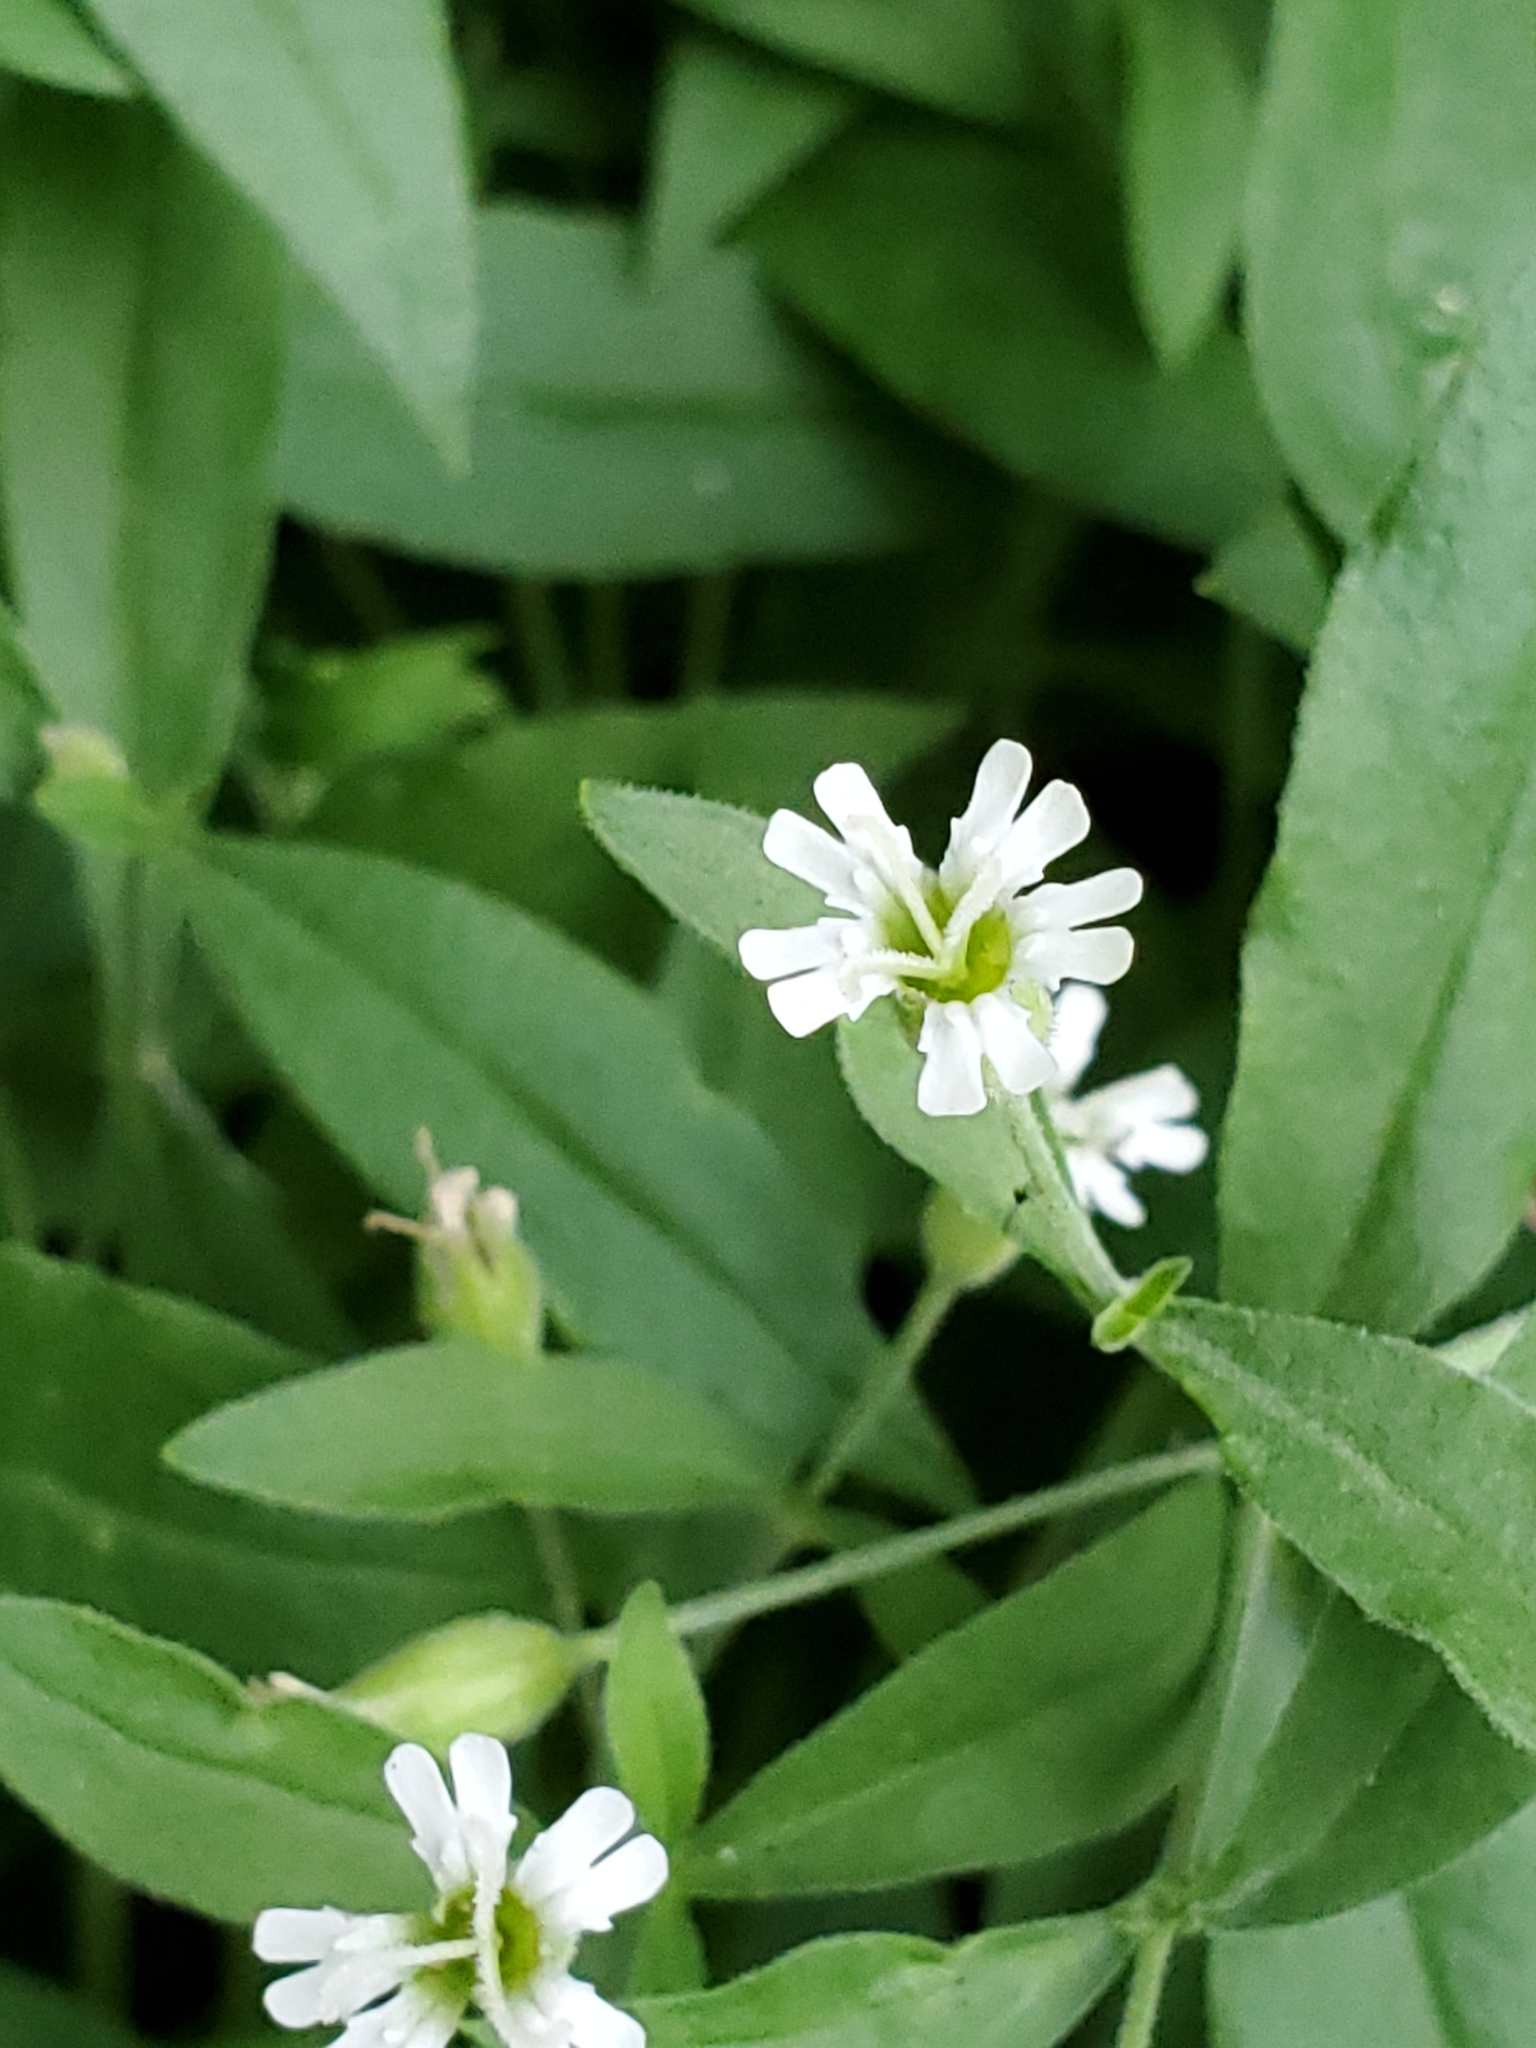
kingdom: Plantae
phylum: Tracheophyta
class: Magnoliopsida
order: Caryophyllales
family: Caryophyllaceae
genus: Silene
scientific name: Silene menziesii
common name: Menzies's catchfly
